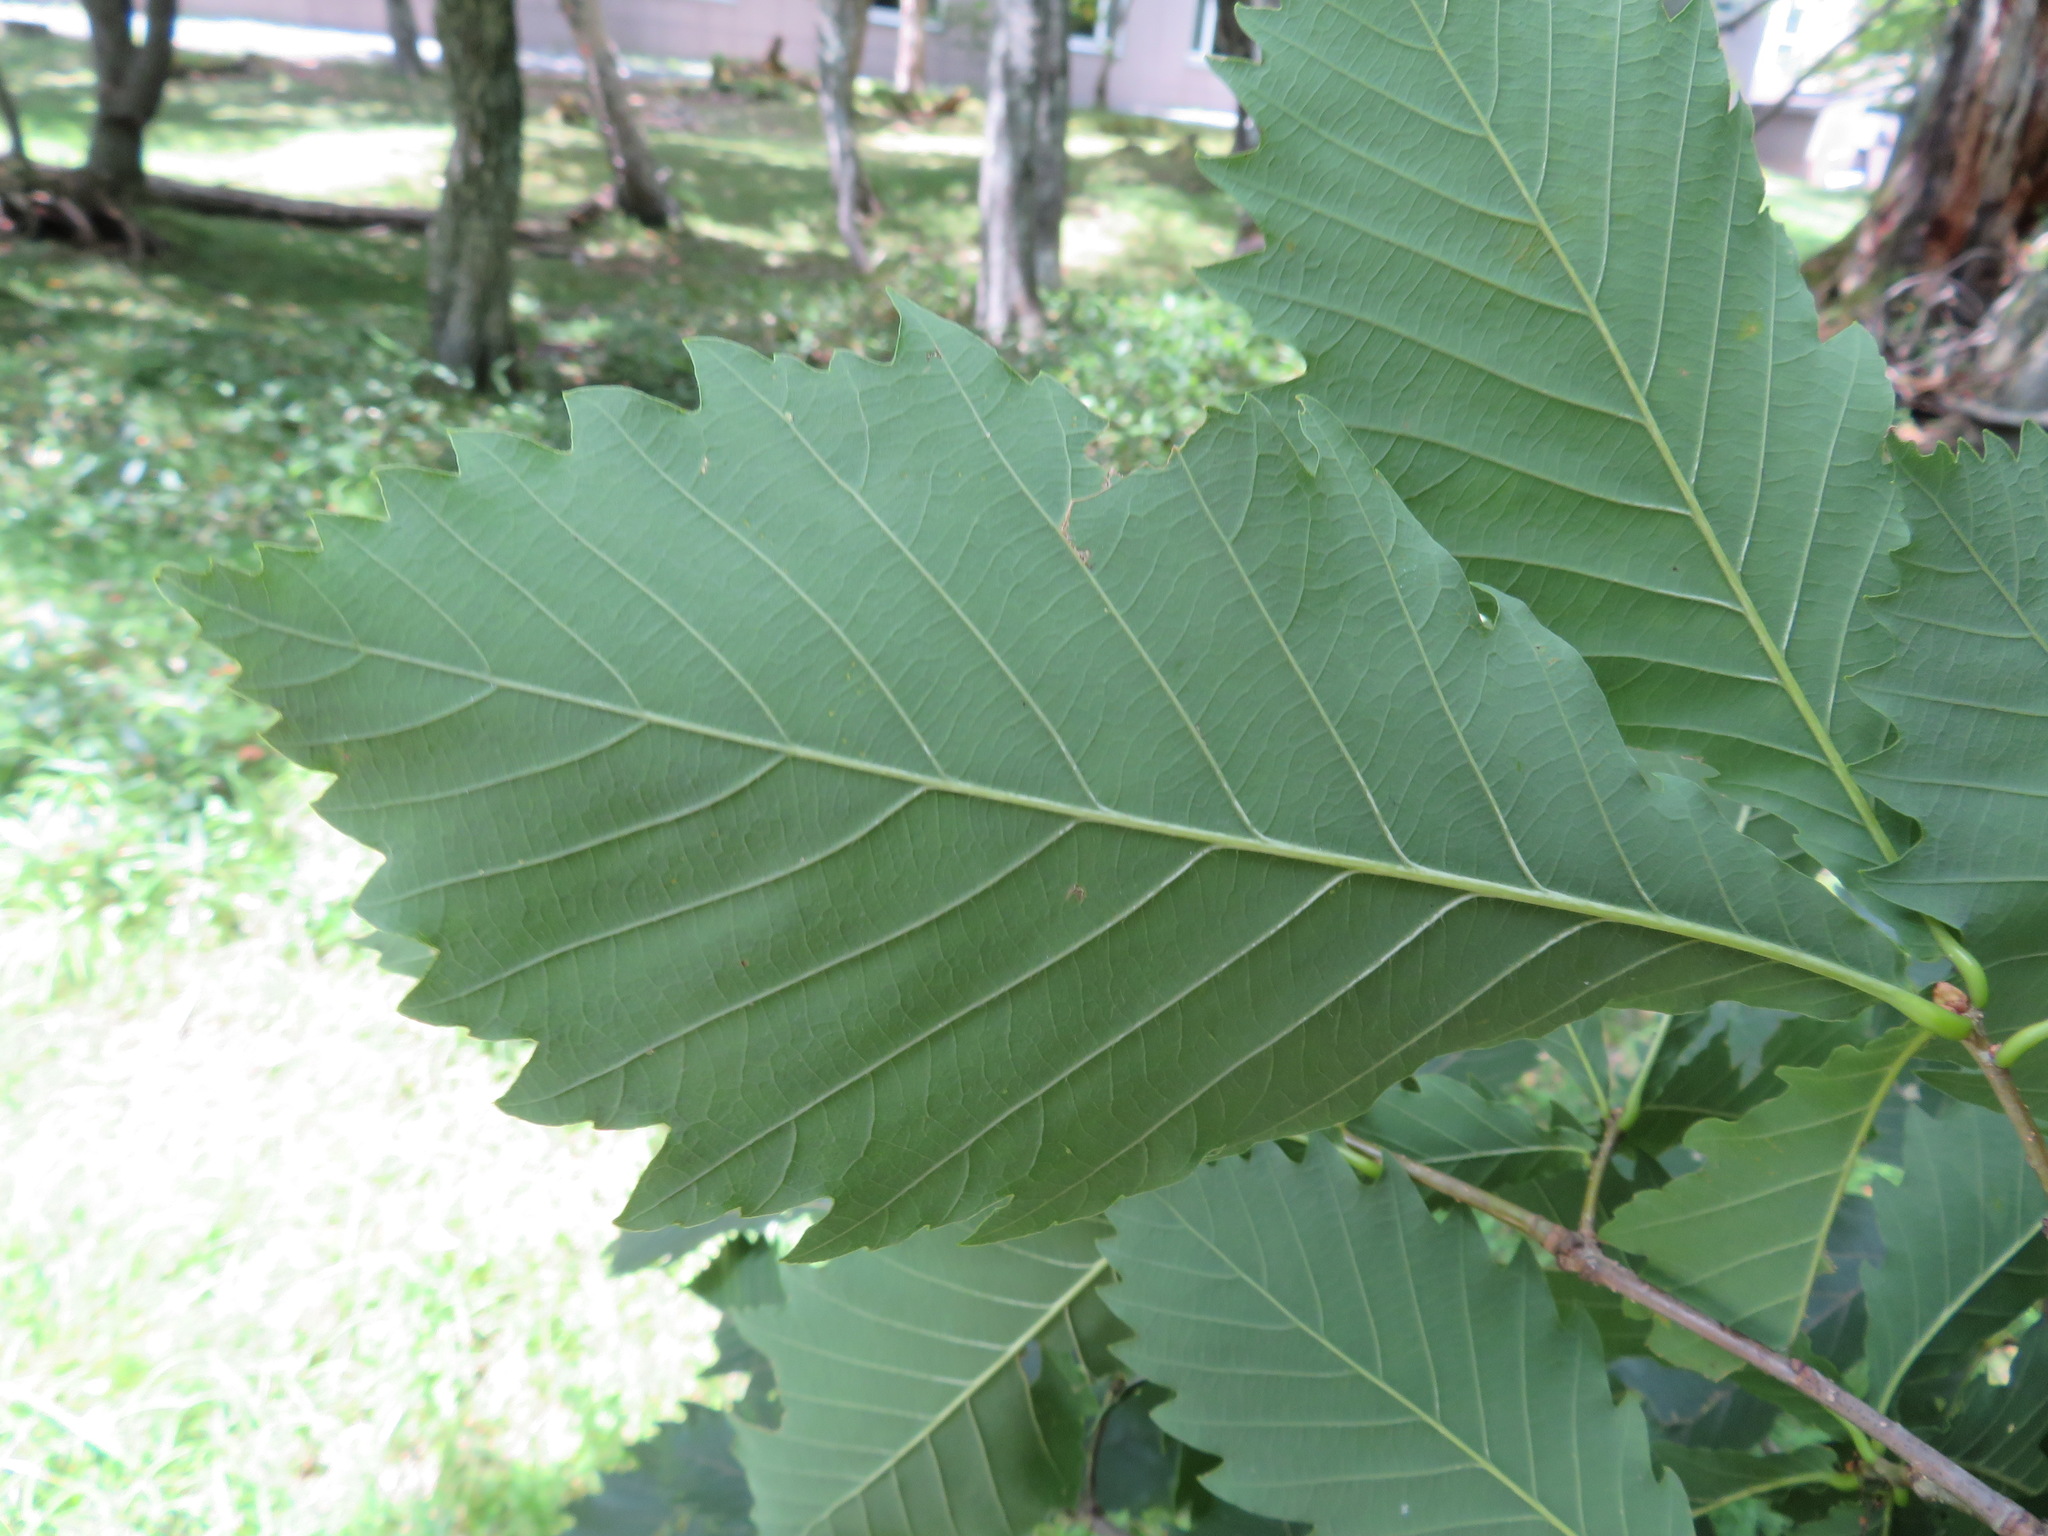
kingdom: Plantae
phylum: Tracheophyta
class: Magnoliopsida
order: Fagales
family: Fagaceae
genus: Quercus
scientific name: Quercus crispula
